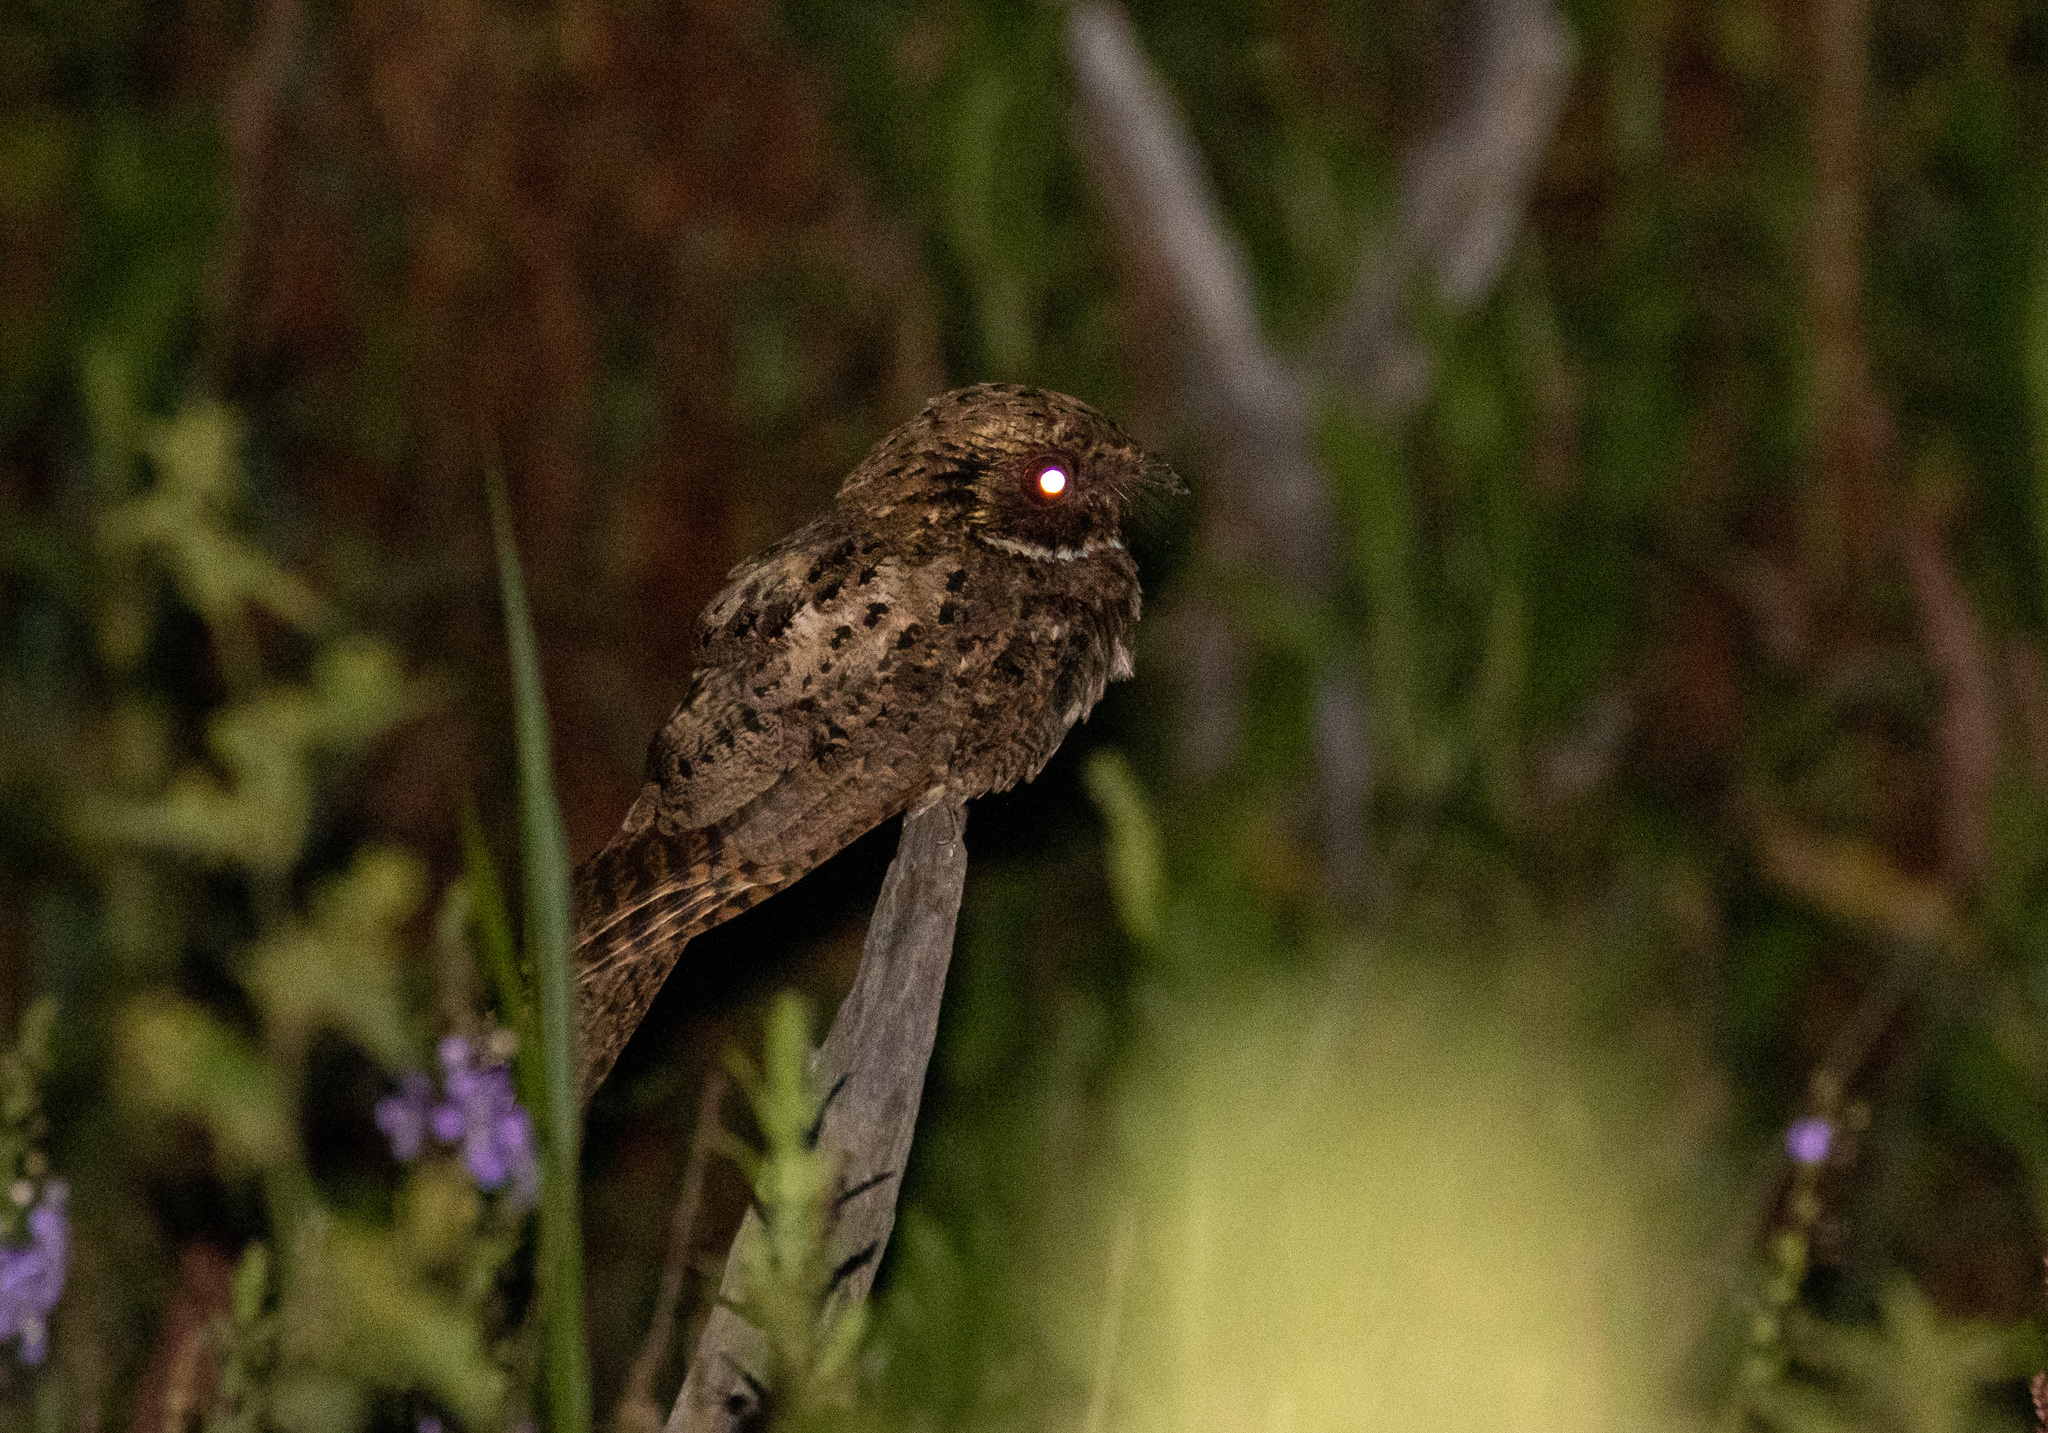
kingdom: Animalia
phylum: Chordata
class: Aves
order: Caprimulgiformes
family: Caprimulgidae
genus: Antrostomus
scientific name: Antrostomus rufus
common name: Rufous nightjar
